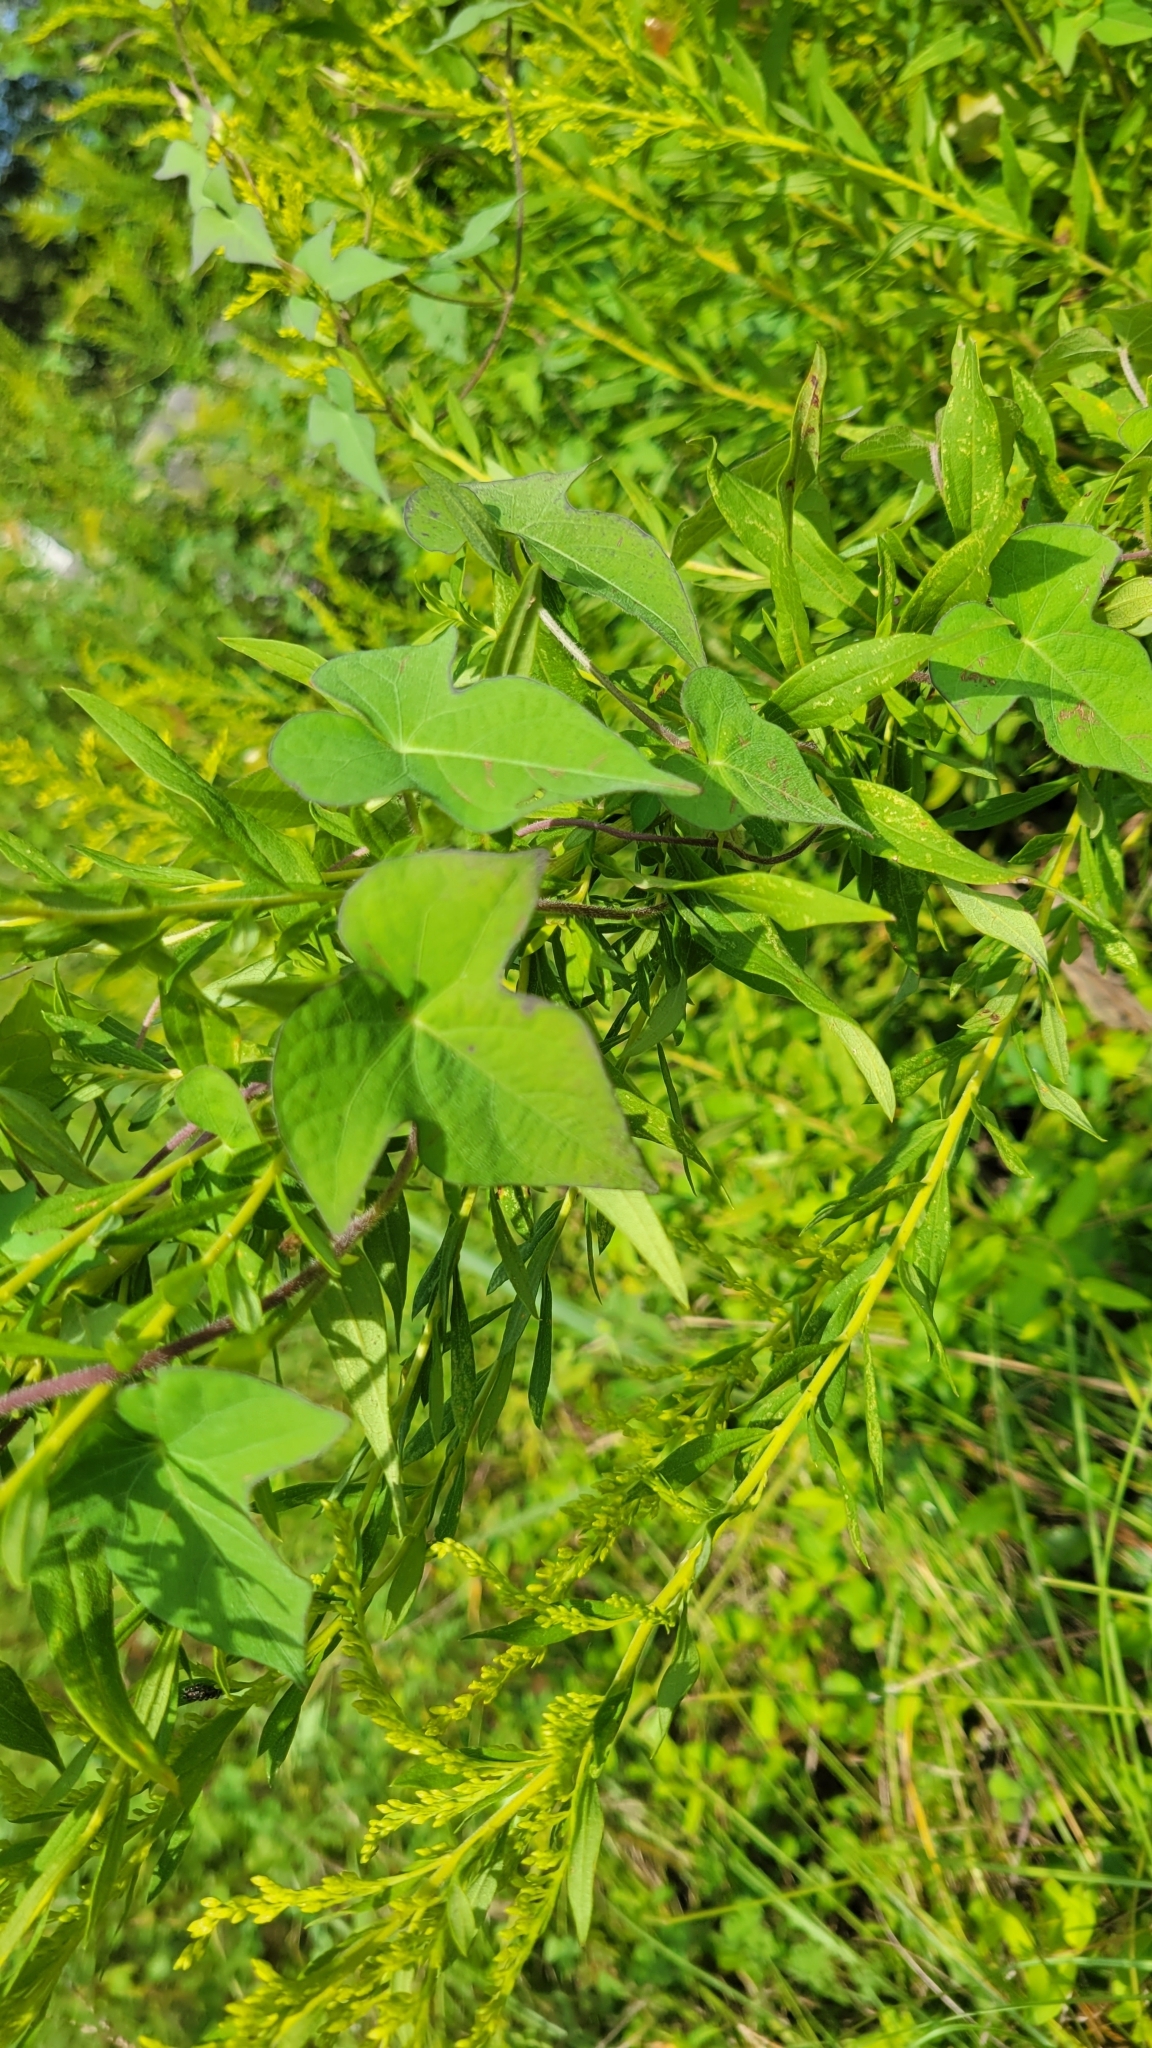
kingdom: Plantae
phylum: Tracheophyta
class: Magnoliopsida
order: Solanales
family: Convolvulaceae
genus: Ipomoea
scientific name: Ipomoea cordatotriloba
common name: Cotton morning glory
